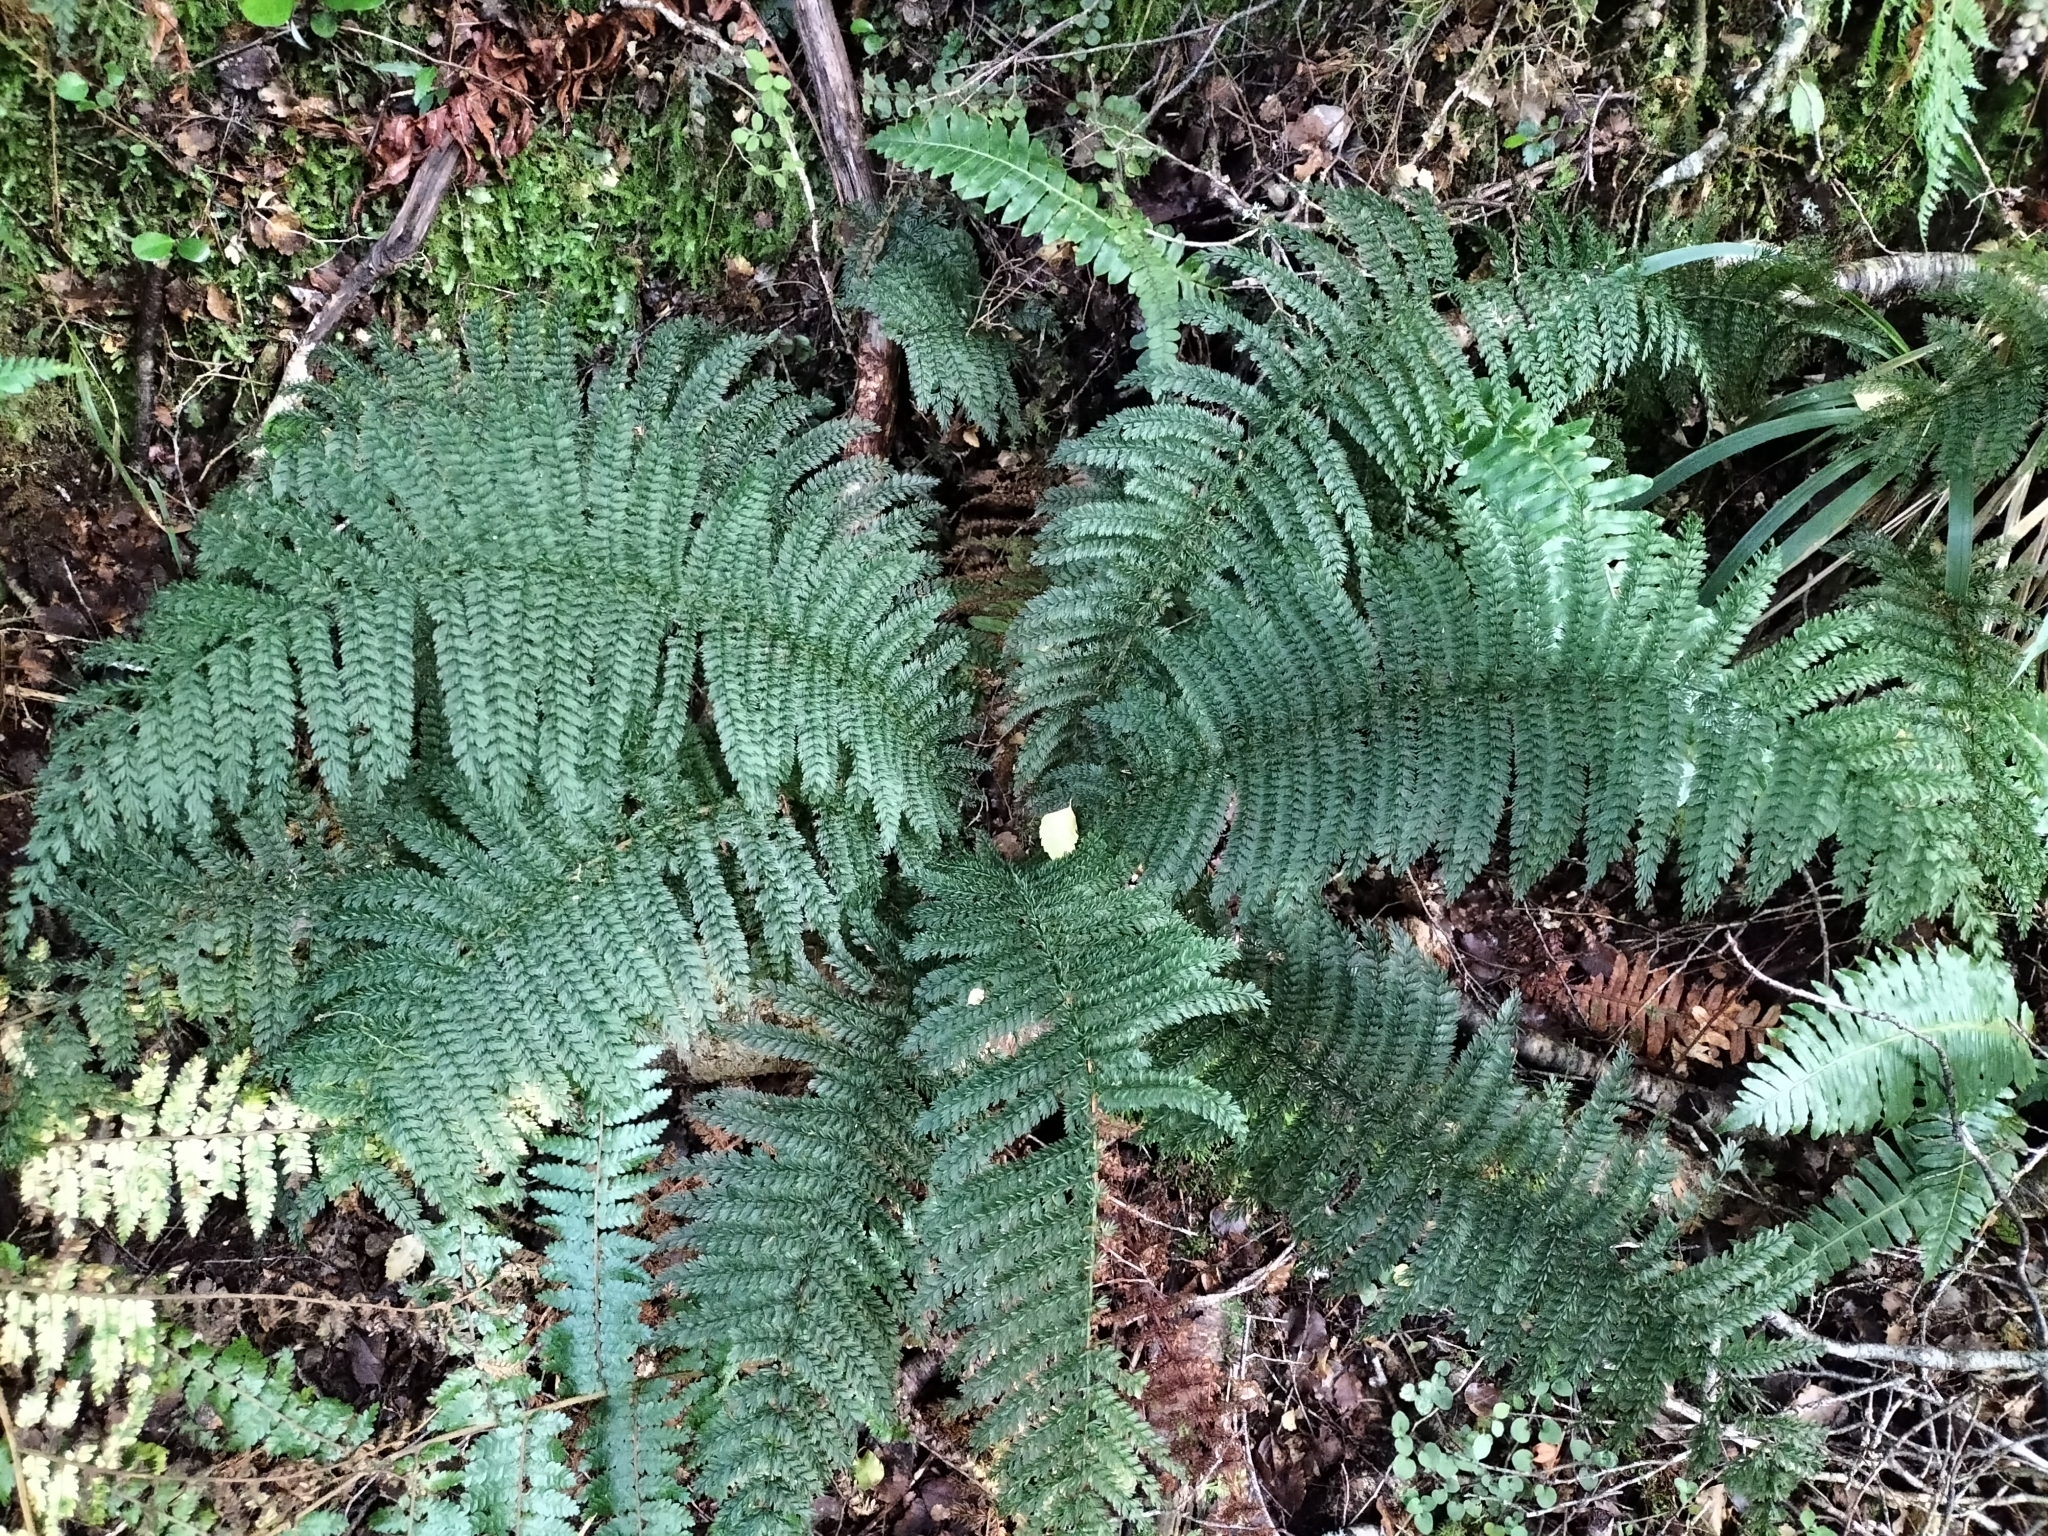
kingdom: Plantae
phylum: Tracheophyta
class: Polypodiopsida
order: Osmundales
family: Osmundaceae
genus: Leptopteris
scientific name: Leptopteris superba
